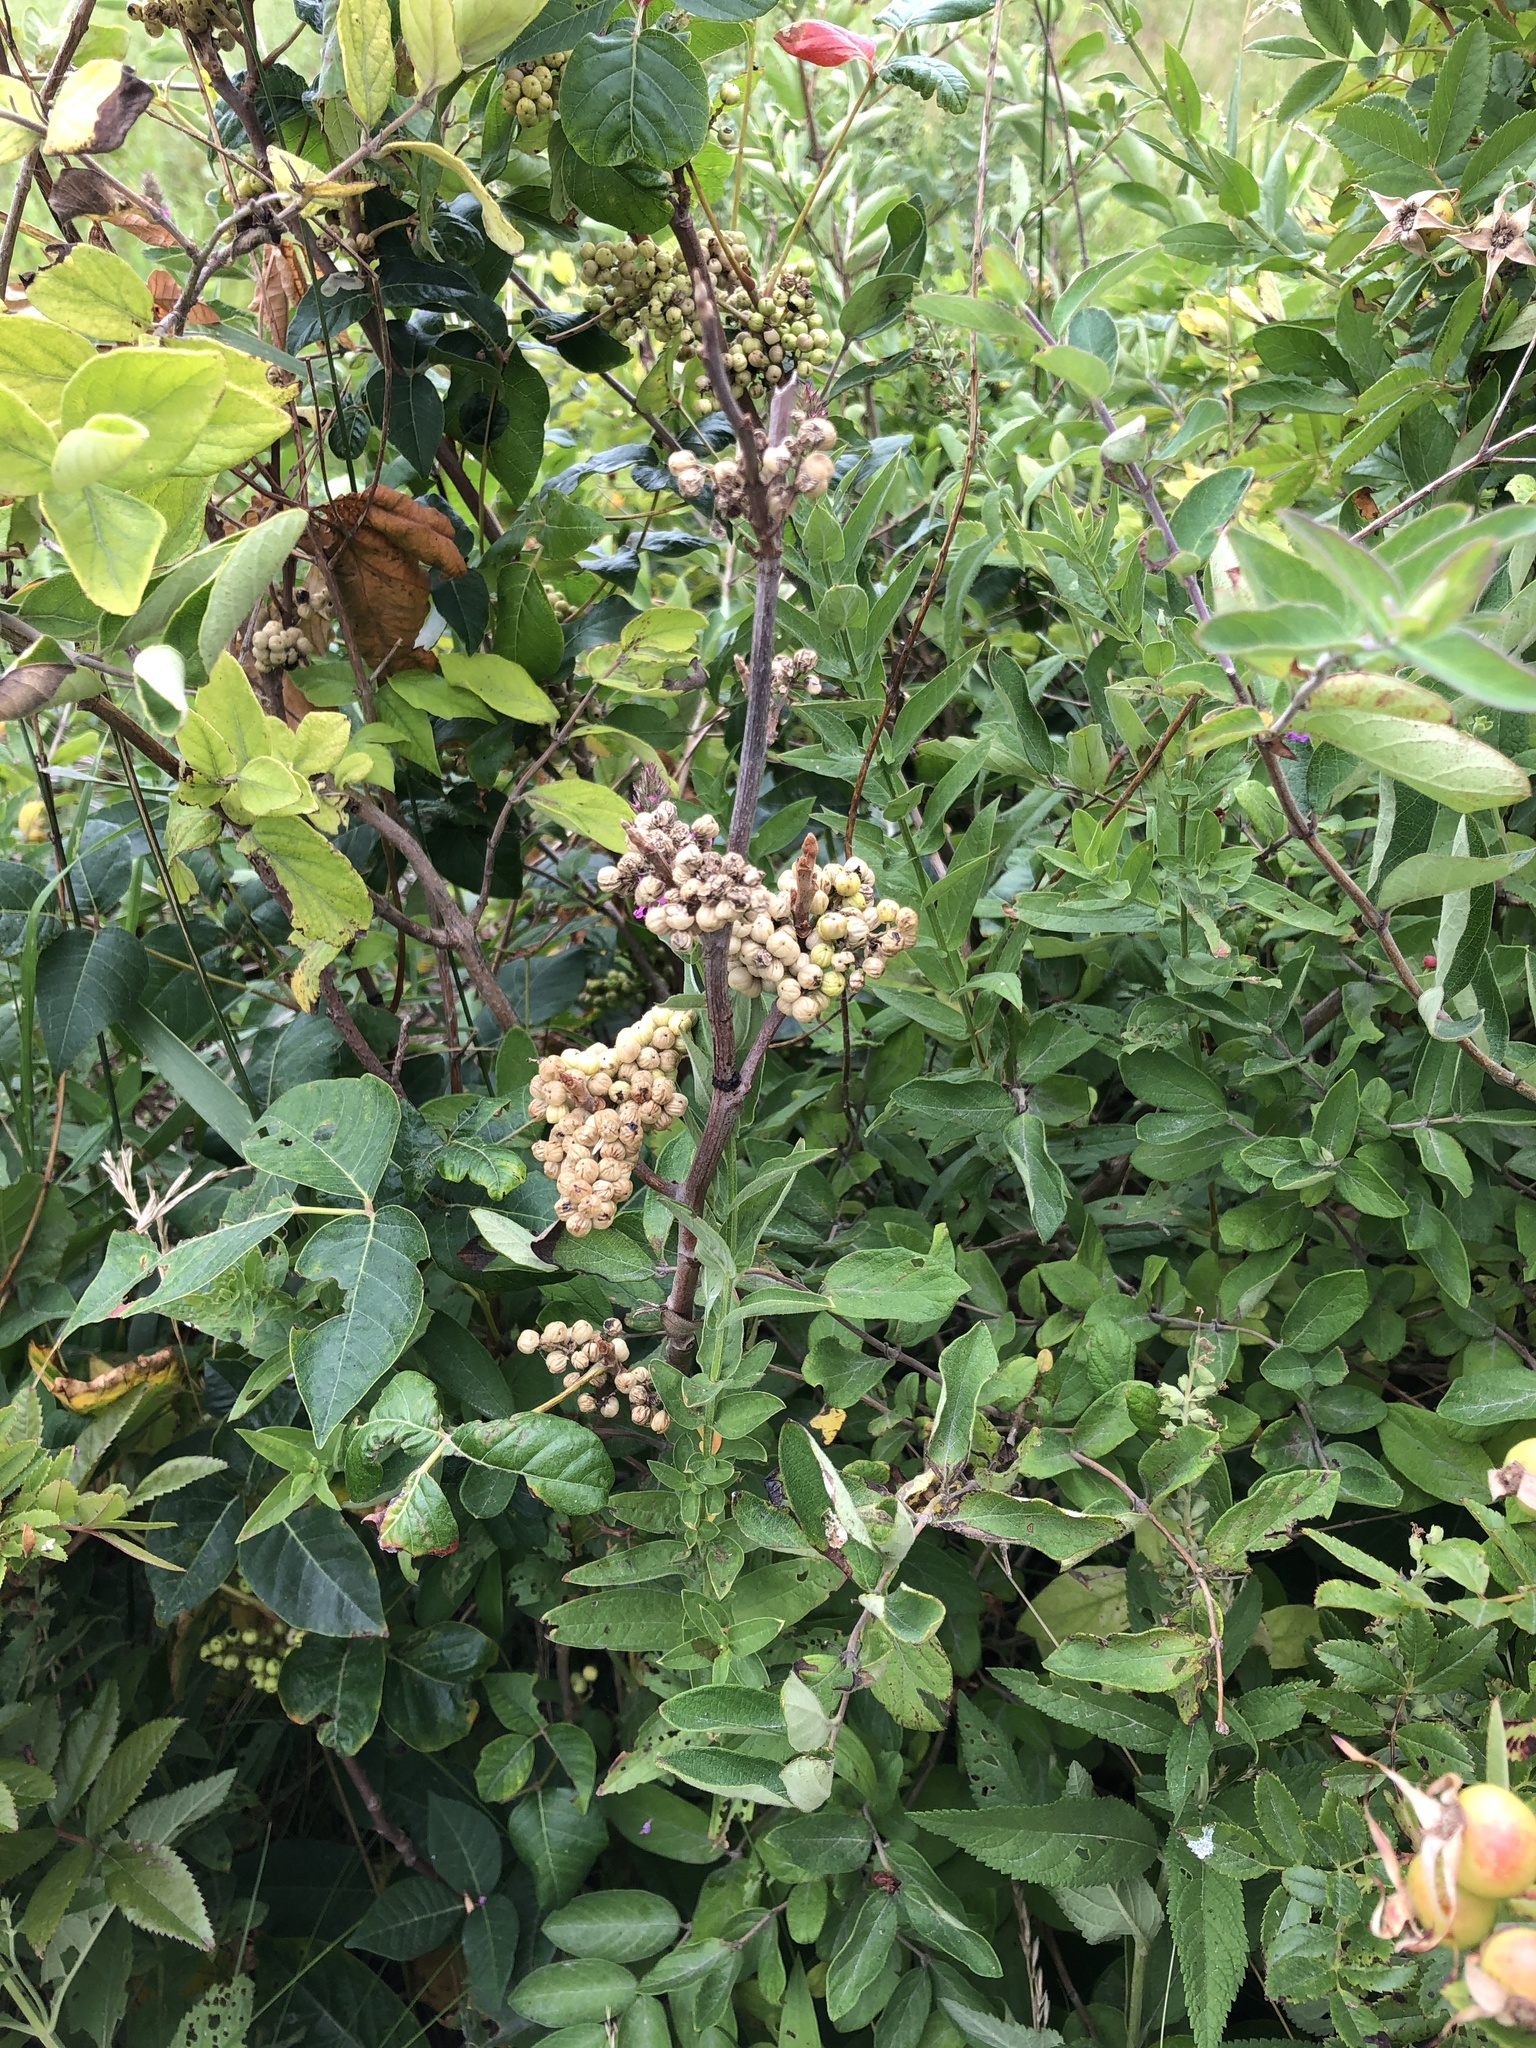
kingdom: Plantae
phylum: Tracheophyta
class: Magnoliopsida
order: Sapindales
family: Anacardiaceae
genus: Toxicodendron
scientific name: Toxicodendron rydbergii
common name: Rydberg's poison-ivy
